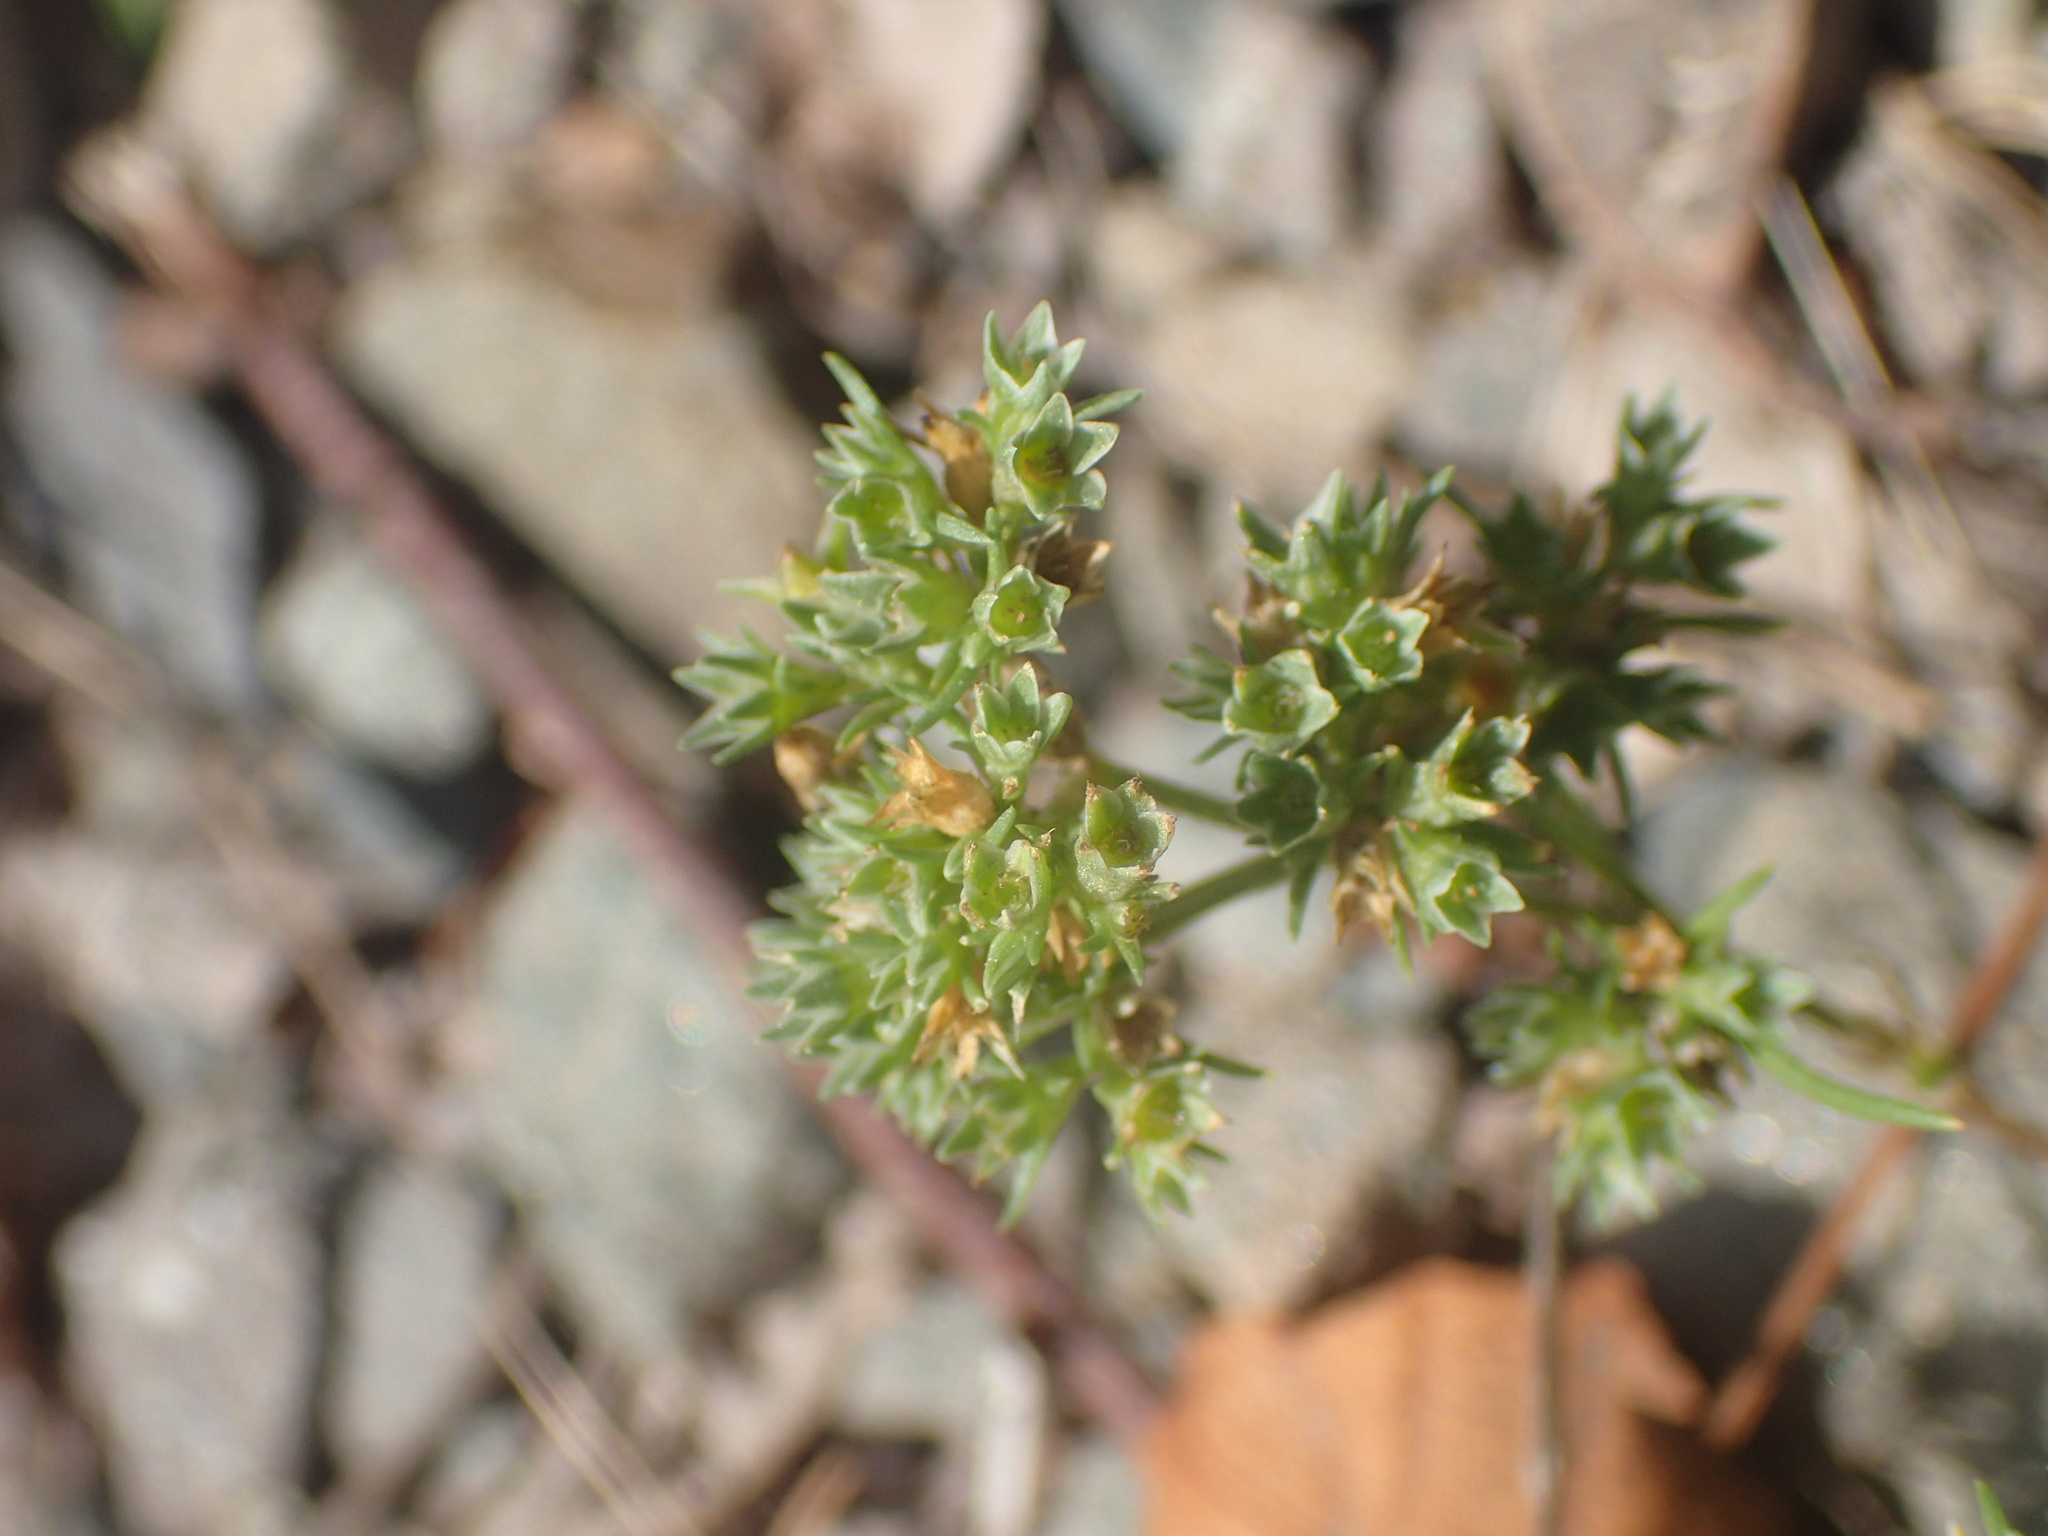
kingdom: Plantae
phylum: Tracheophyta
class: Magnoliopsida
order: Caryophyllales
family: Caryophyllaceae
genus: Scleranthus
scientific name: Scleranthus annuus
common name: Annual knawel
